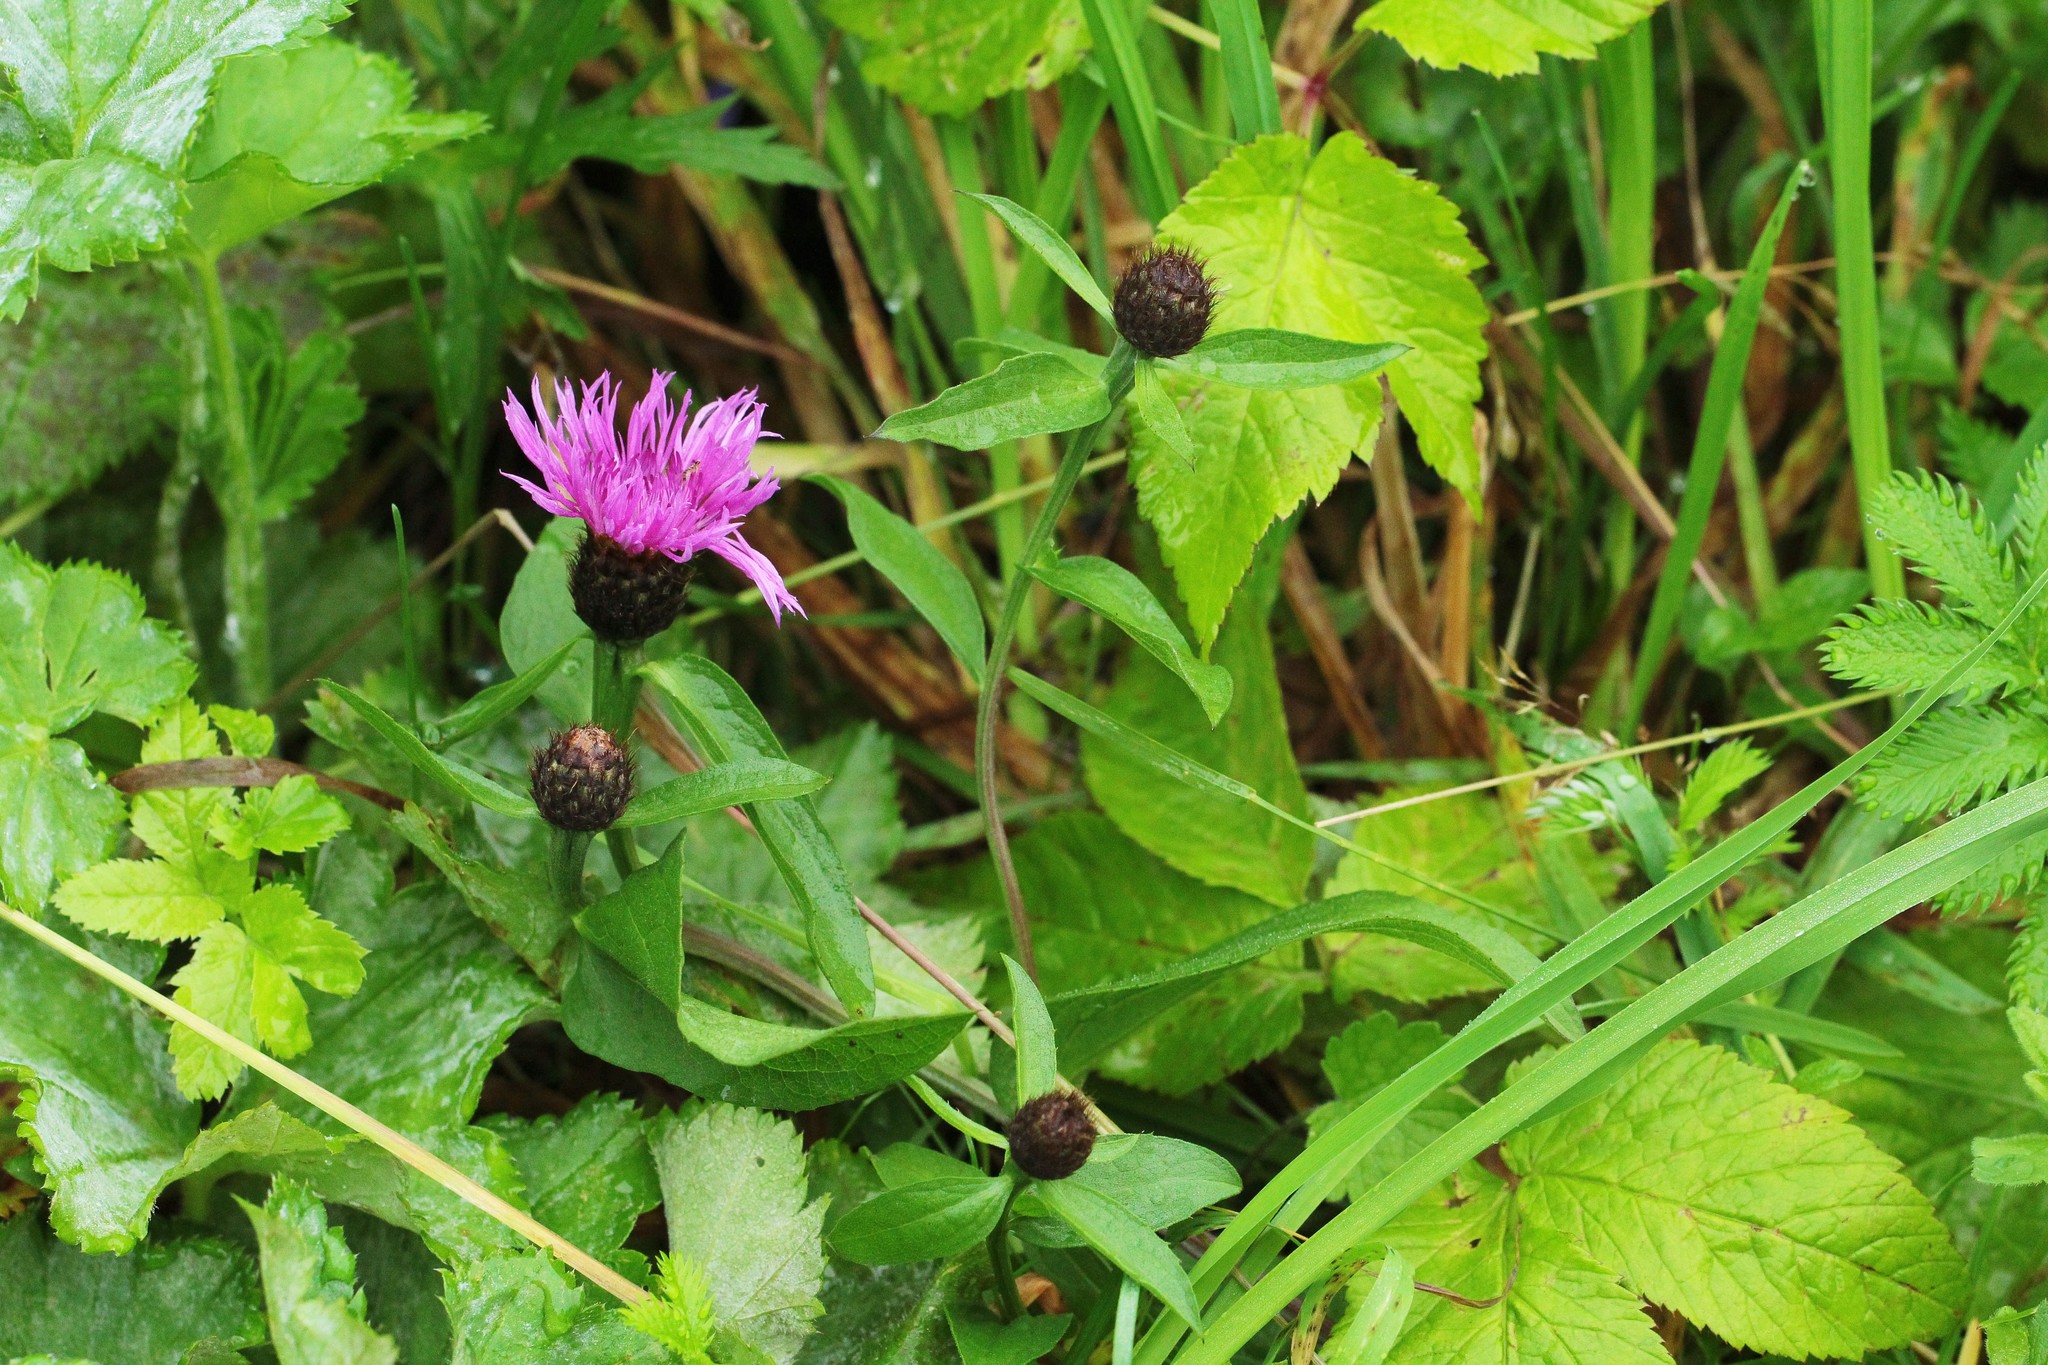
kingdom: Plantae
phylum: Tracheophyta
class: Magnoliopsida
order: Asterales
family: Asteraceae
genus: Centaurea
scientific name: Centaurea phrygia
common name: Wig knapweed
